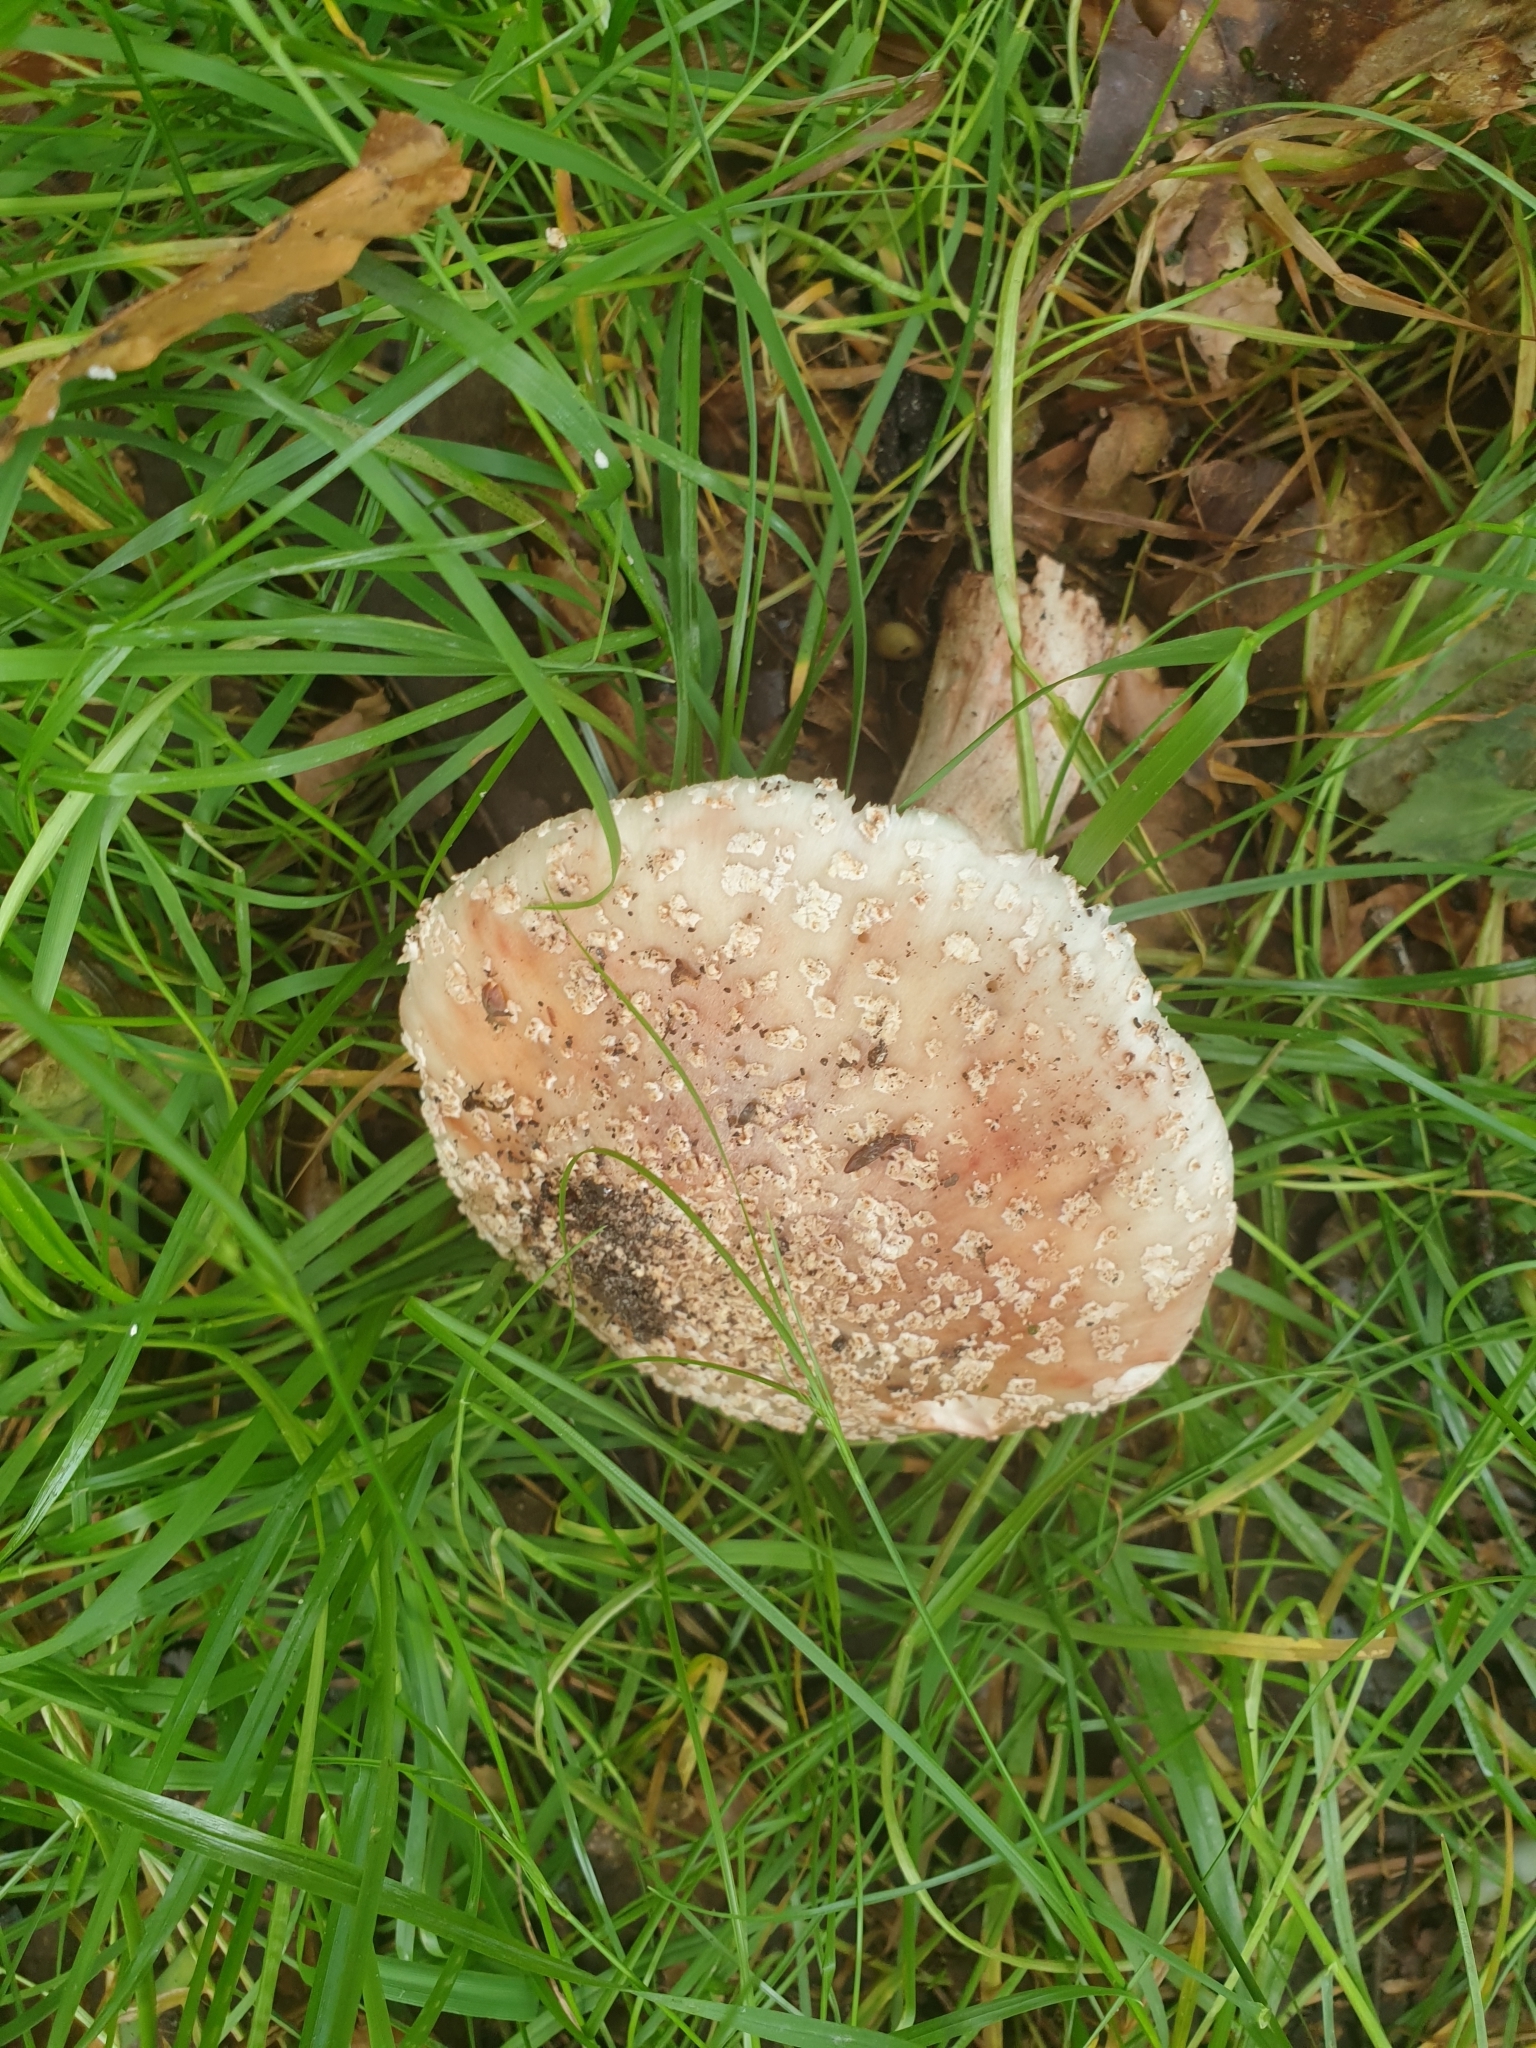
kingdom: Fungi
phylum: Basidiomycota
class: Agaricomycetes
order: Agaricales
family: Amanitaceae
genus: Amanita
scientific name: Amanita rubescens
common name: Blusher
